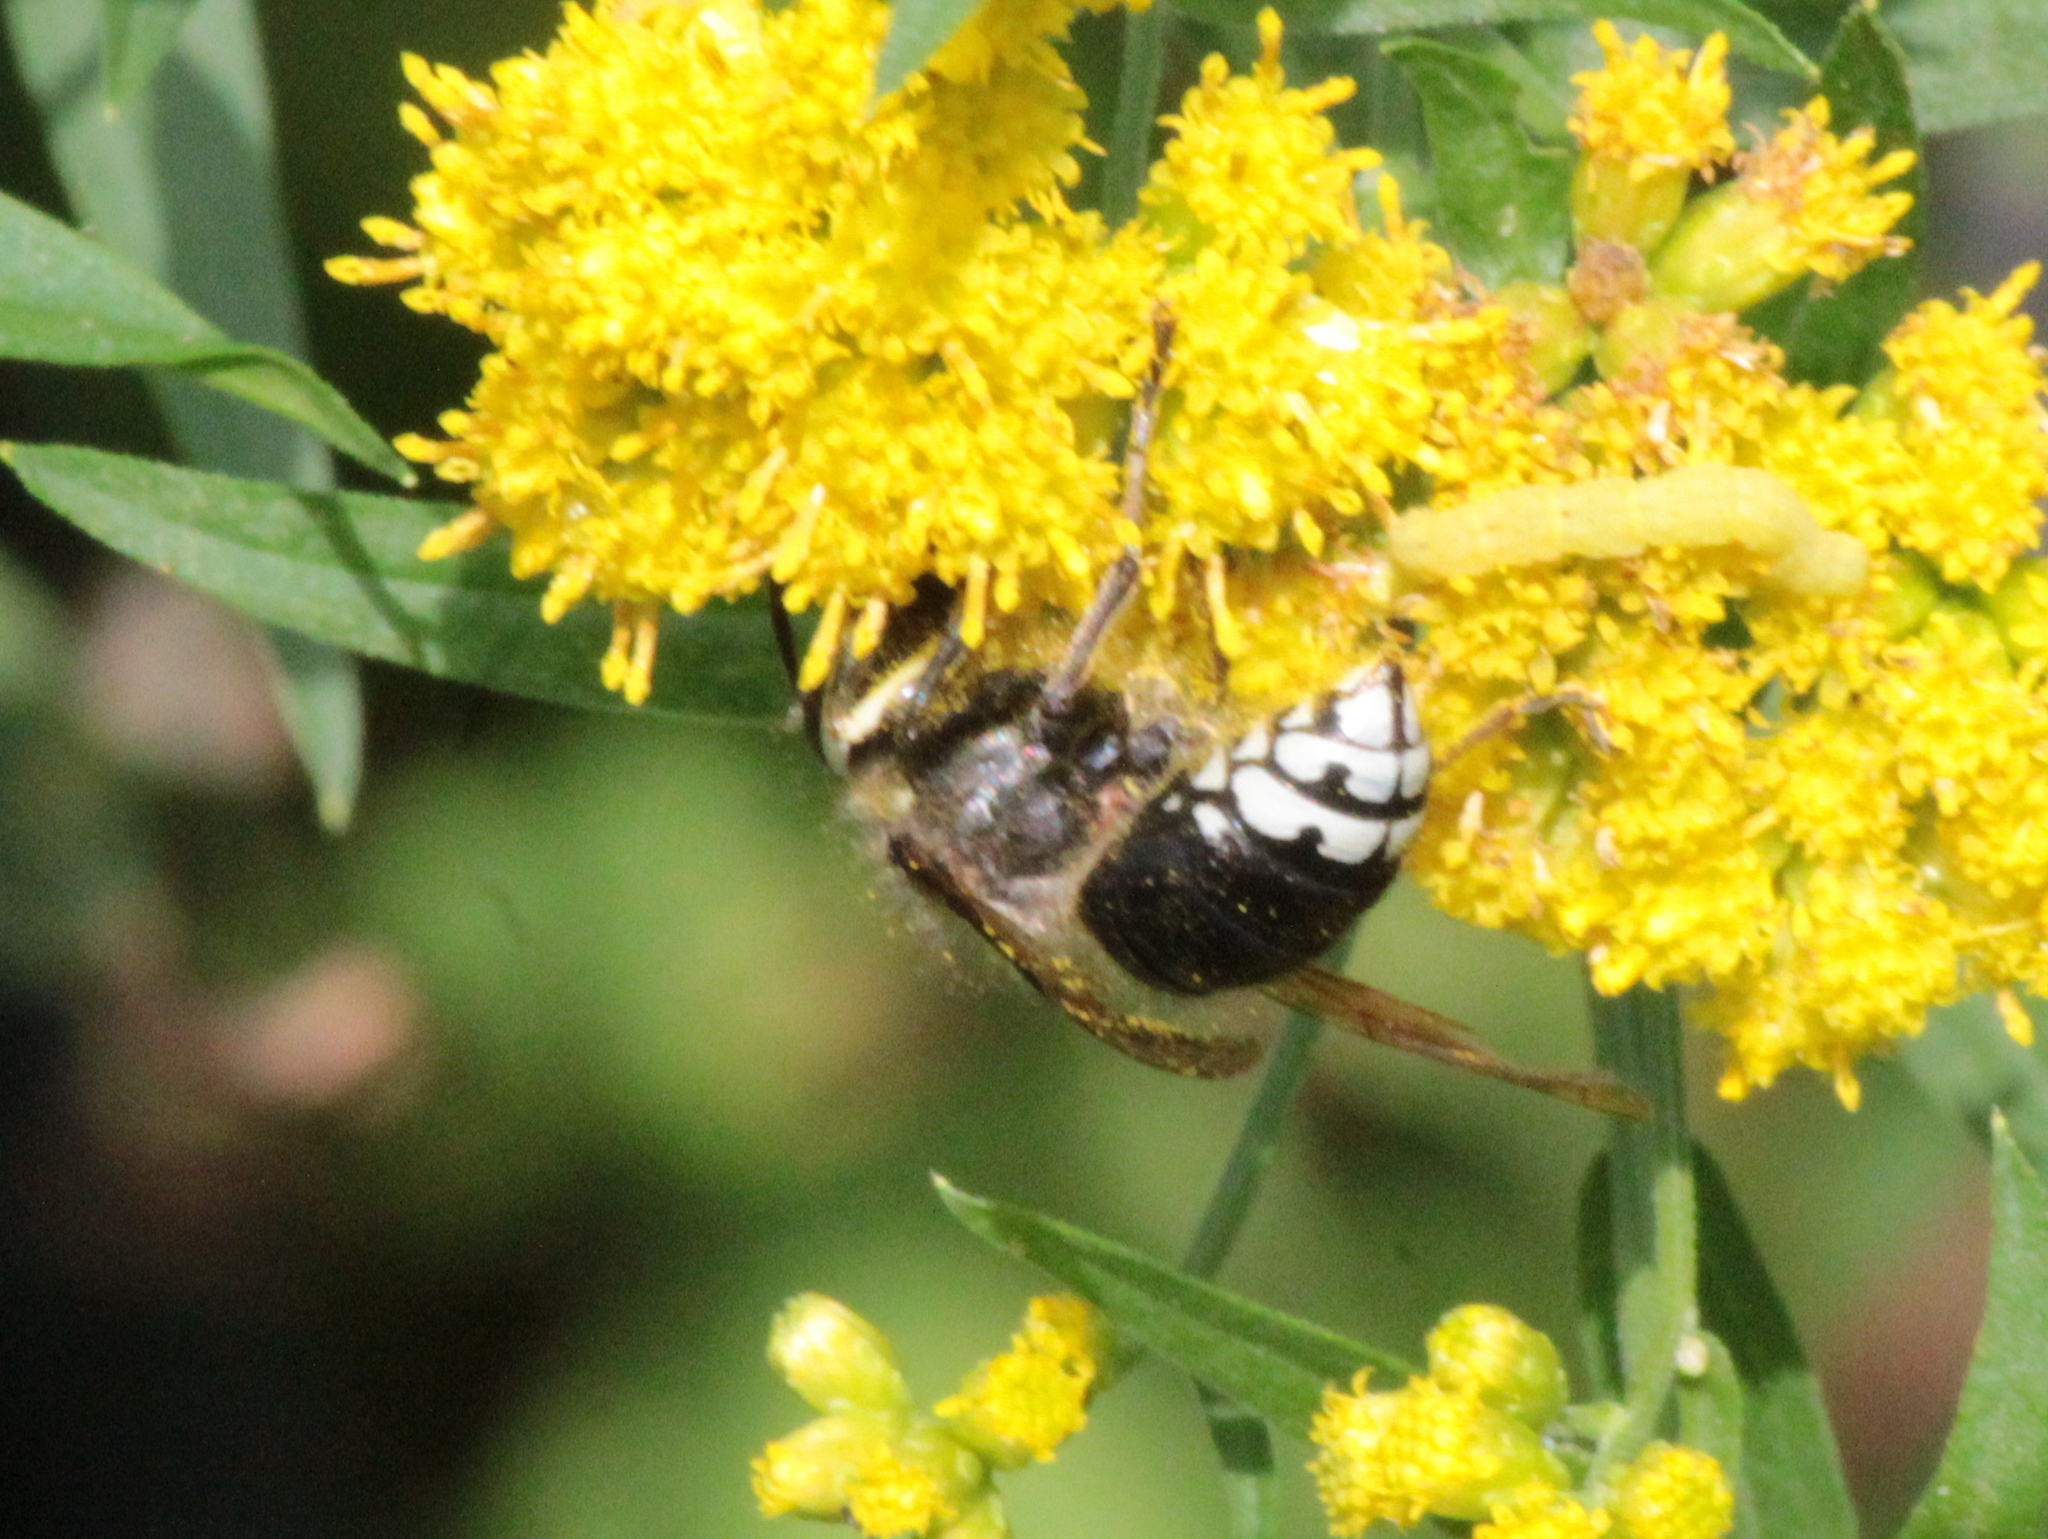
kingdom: Animalia
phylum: Arthropoda
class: Insecta
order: Hymenoptera
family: Vespidae
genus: Dolichovespula
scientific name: Dolichovespula maculata
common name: Bald-faced hornet
